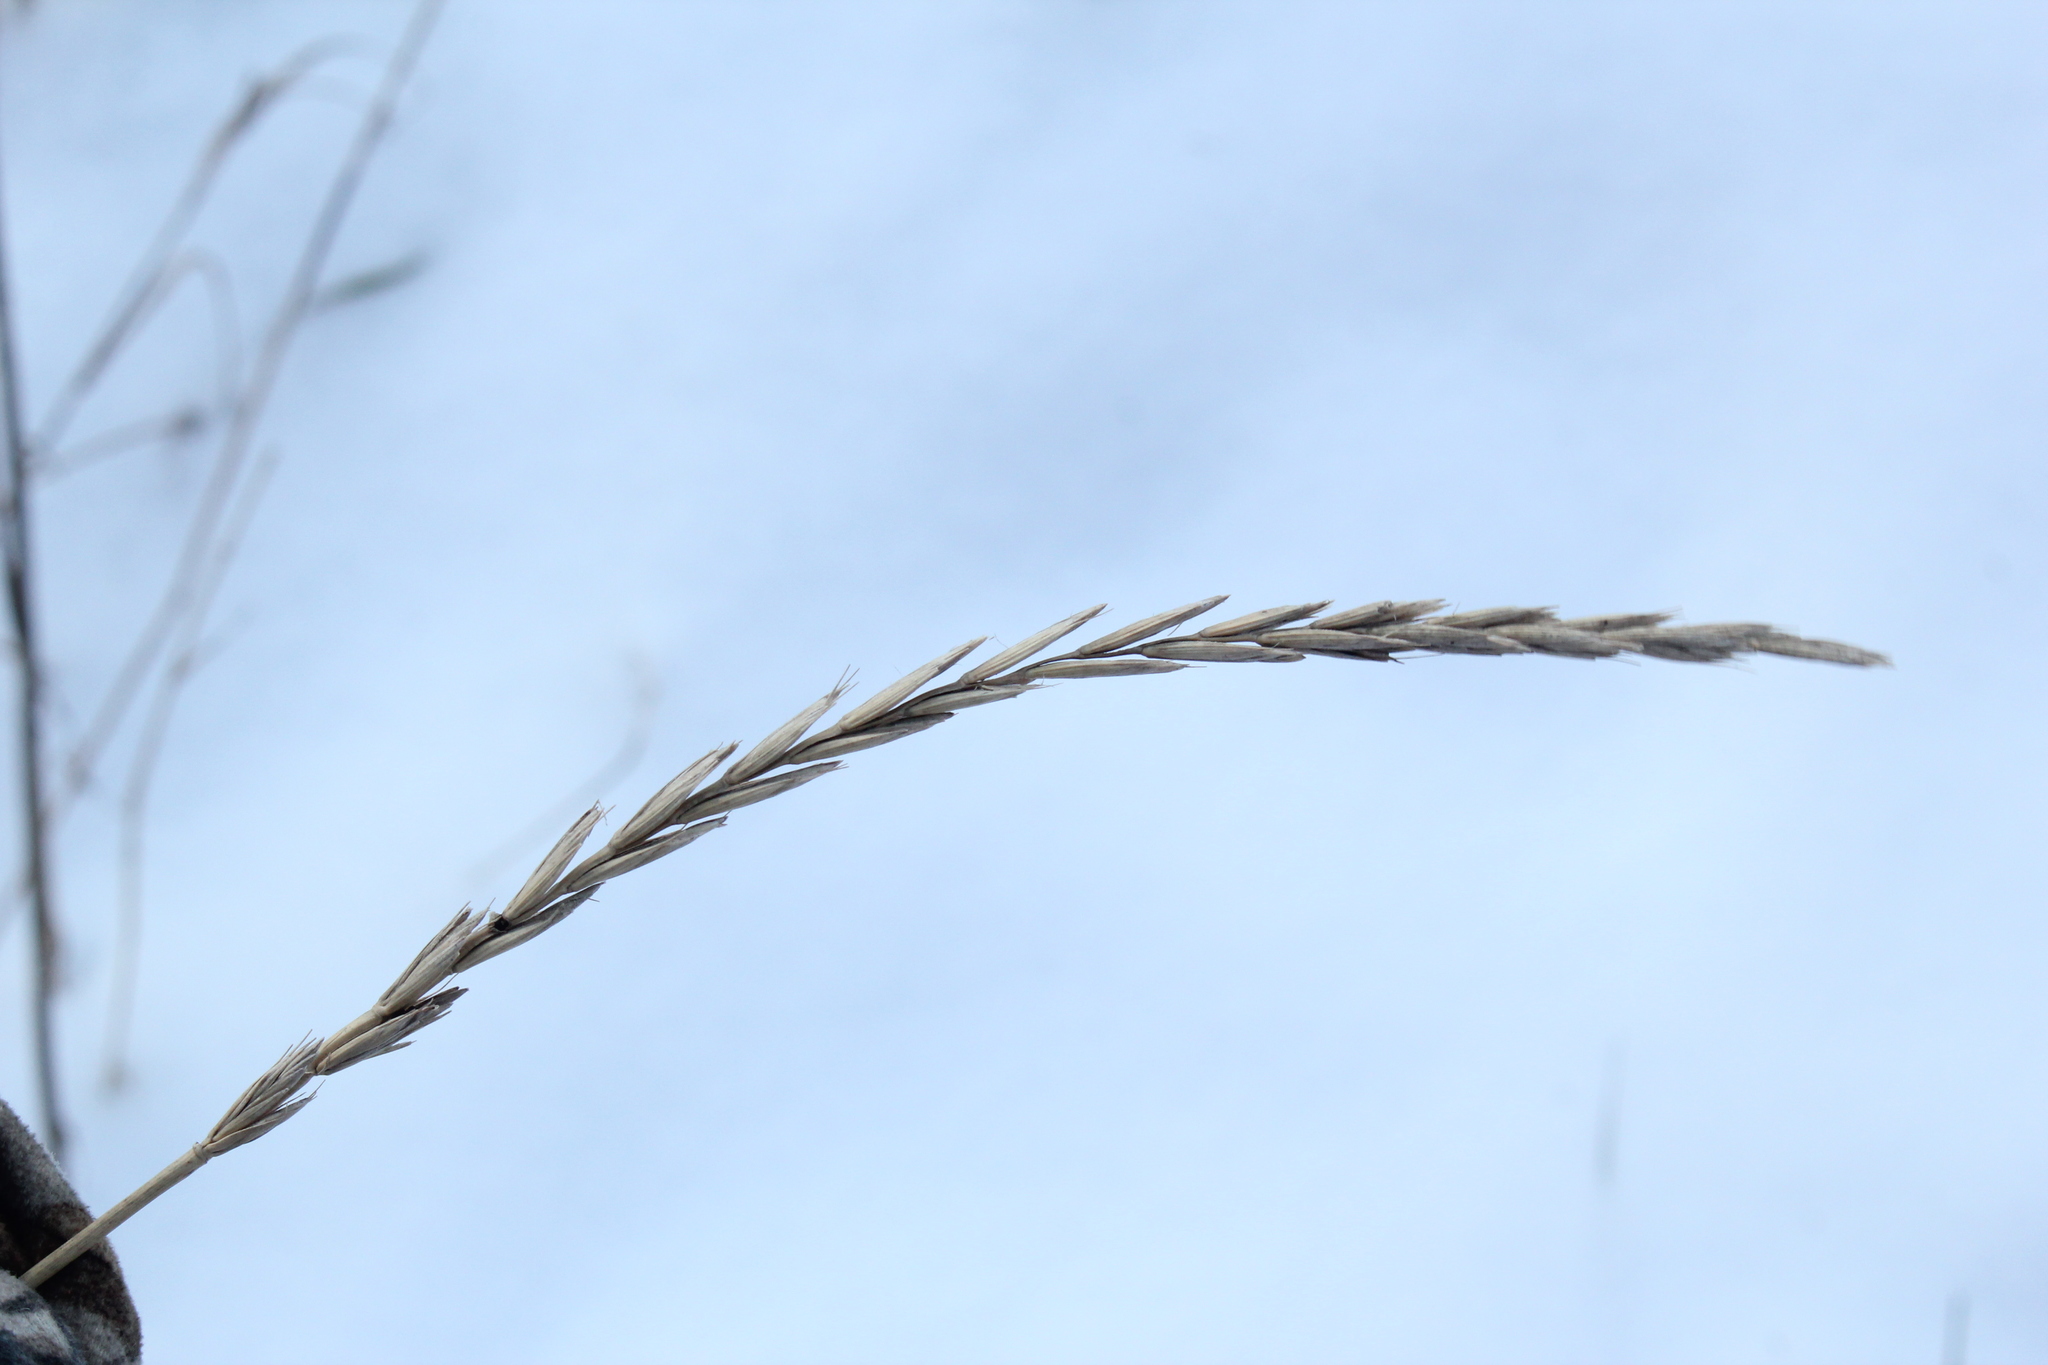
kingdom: Plantae
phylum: Tracheophyta
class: Liliopsida
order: Poales
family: Poaceae
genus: Elymus
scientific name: Elymus repens
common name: Quackgrass
